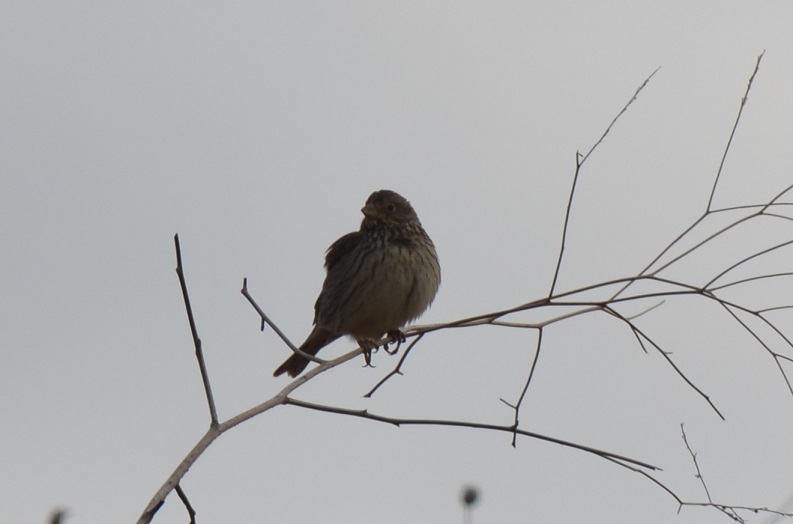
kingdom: Animalia
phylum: Chordata
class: Aves
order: Passeriformes
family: Emberizidae
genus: Emberiza
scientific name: Emberiza calandra
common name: Corn bunting
